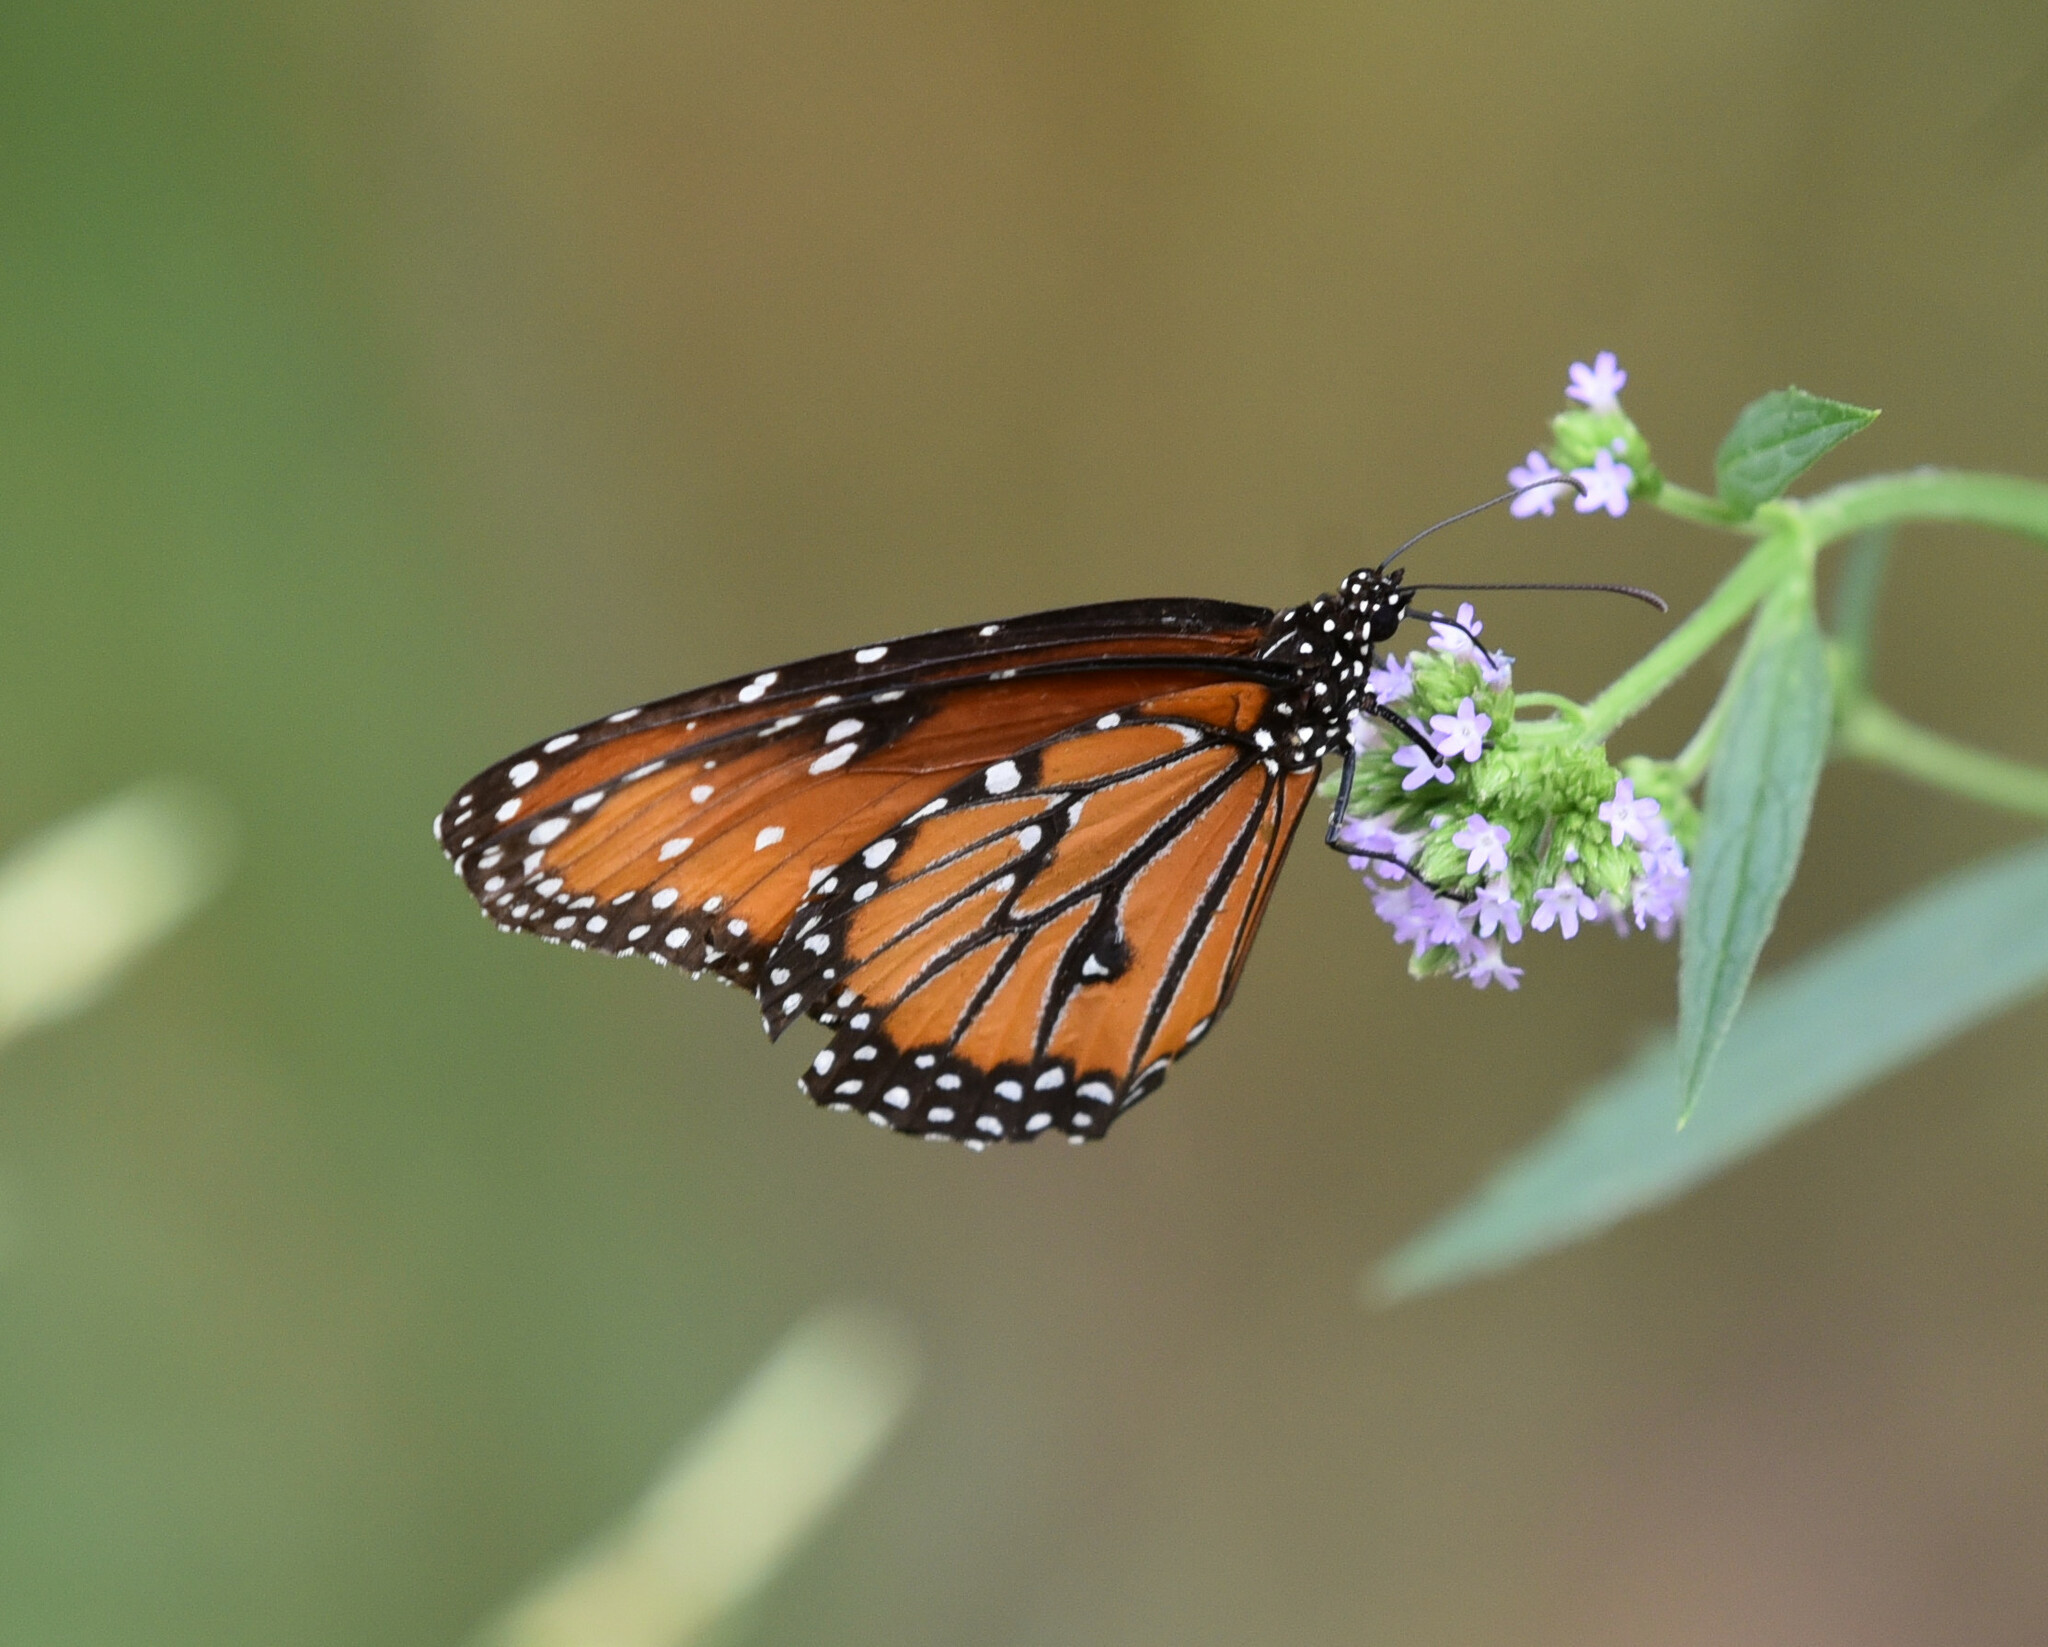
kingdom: Animalia
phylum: Arthropoda
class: Insecta
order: Lepidoptera
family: Nymphalidae
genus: Danaus
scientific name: Danaus gilippus
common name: Queen
